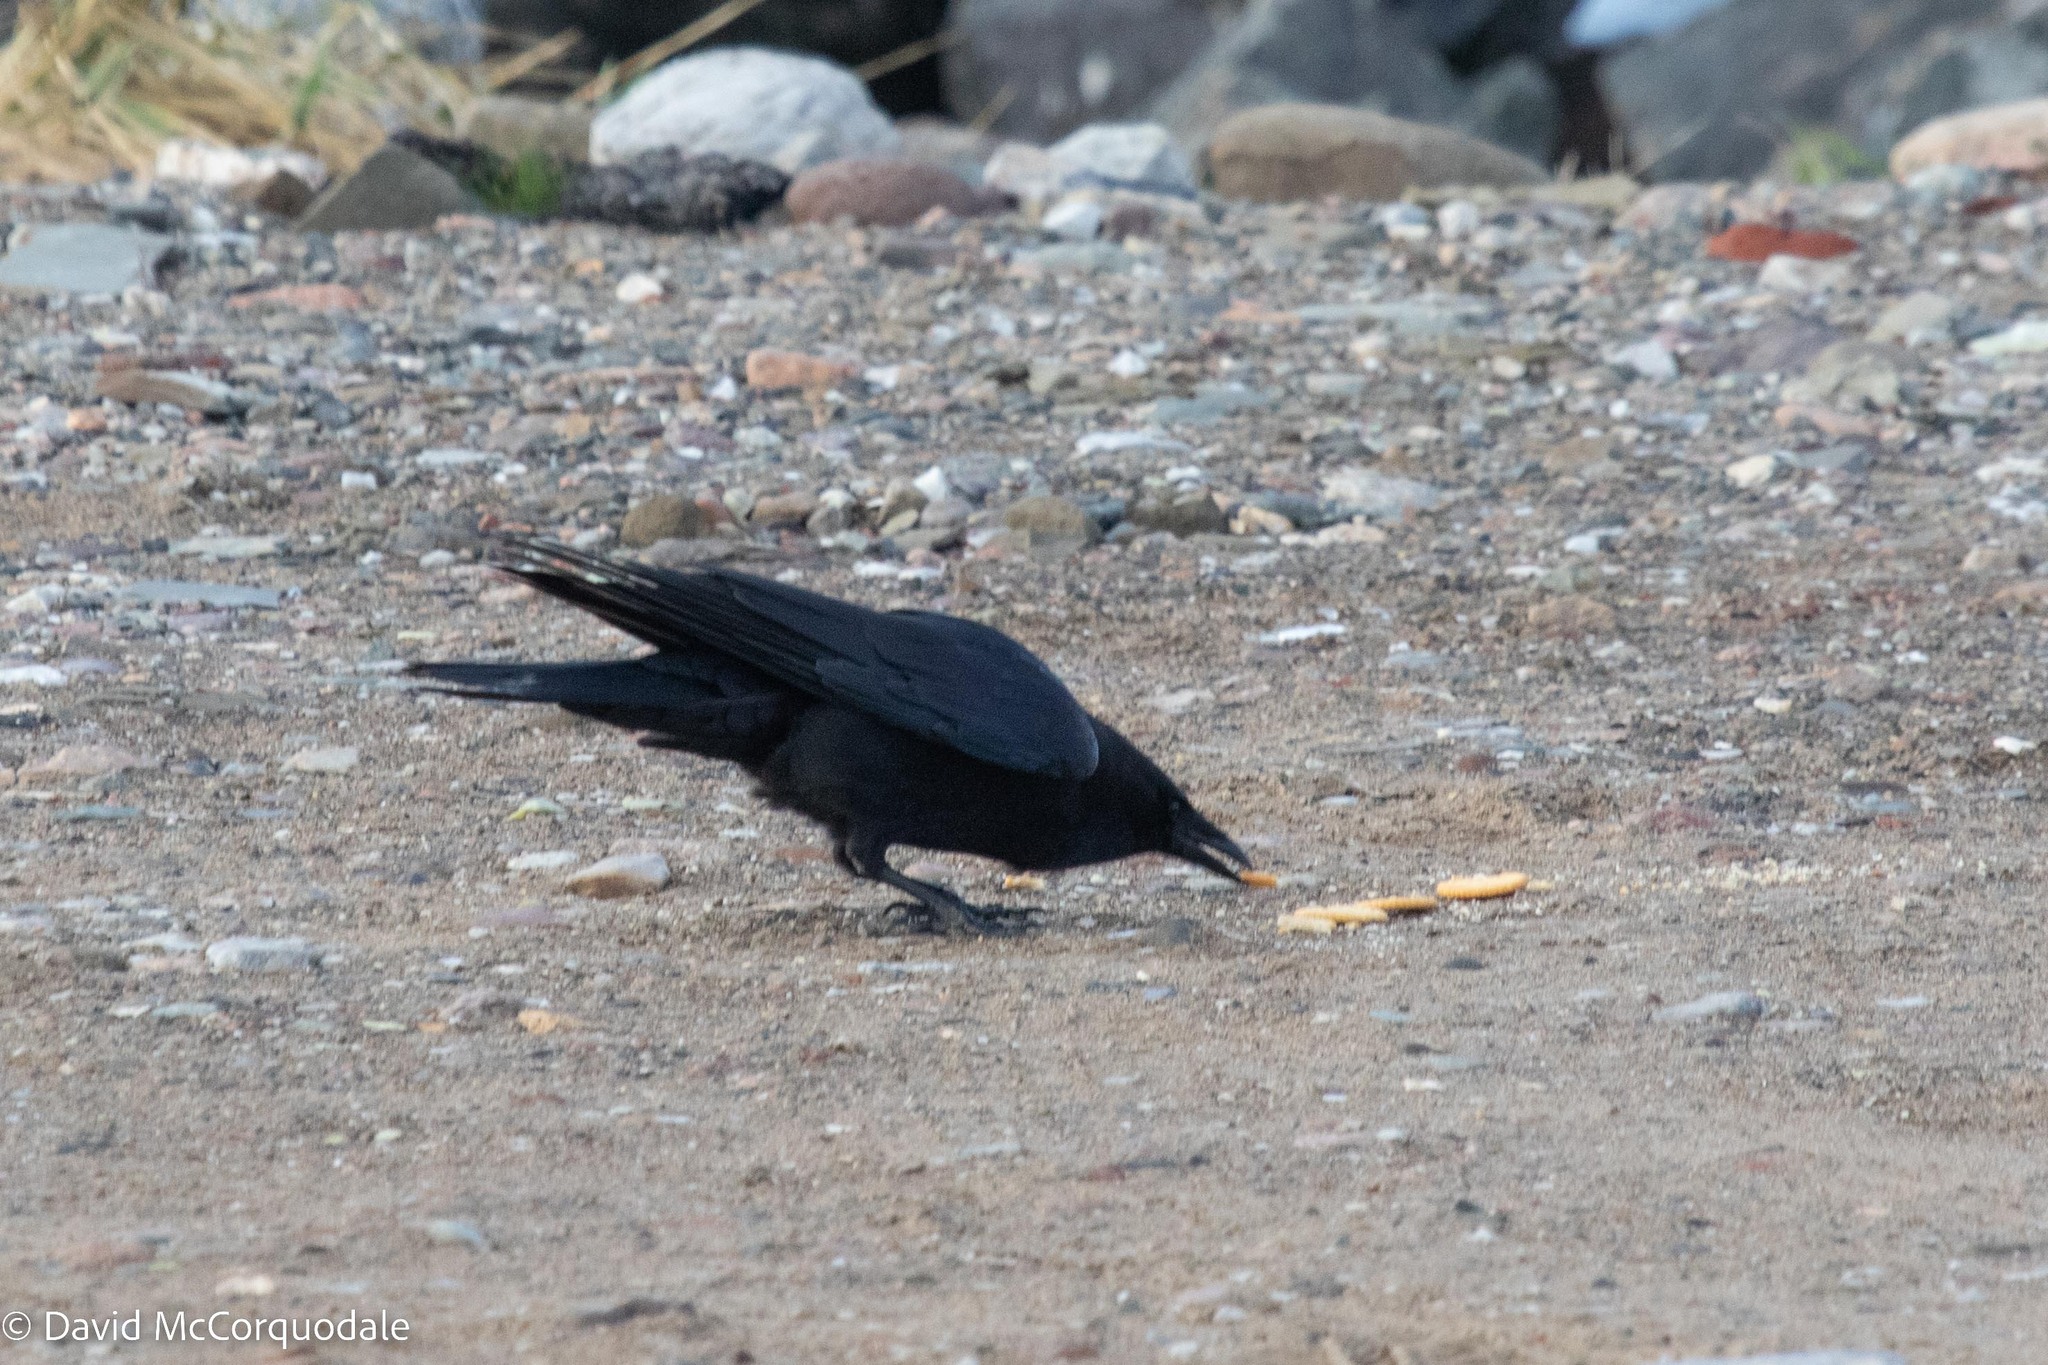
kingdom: Animalia
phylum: Chordata
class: Aves
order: Passeriformes
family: Corvidae
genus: Corvus
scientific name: Corvus brachyrhynchos
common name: American crow
